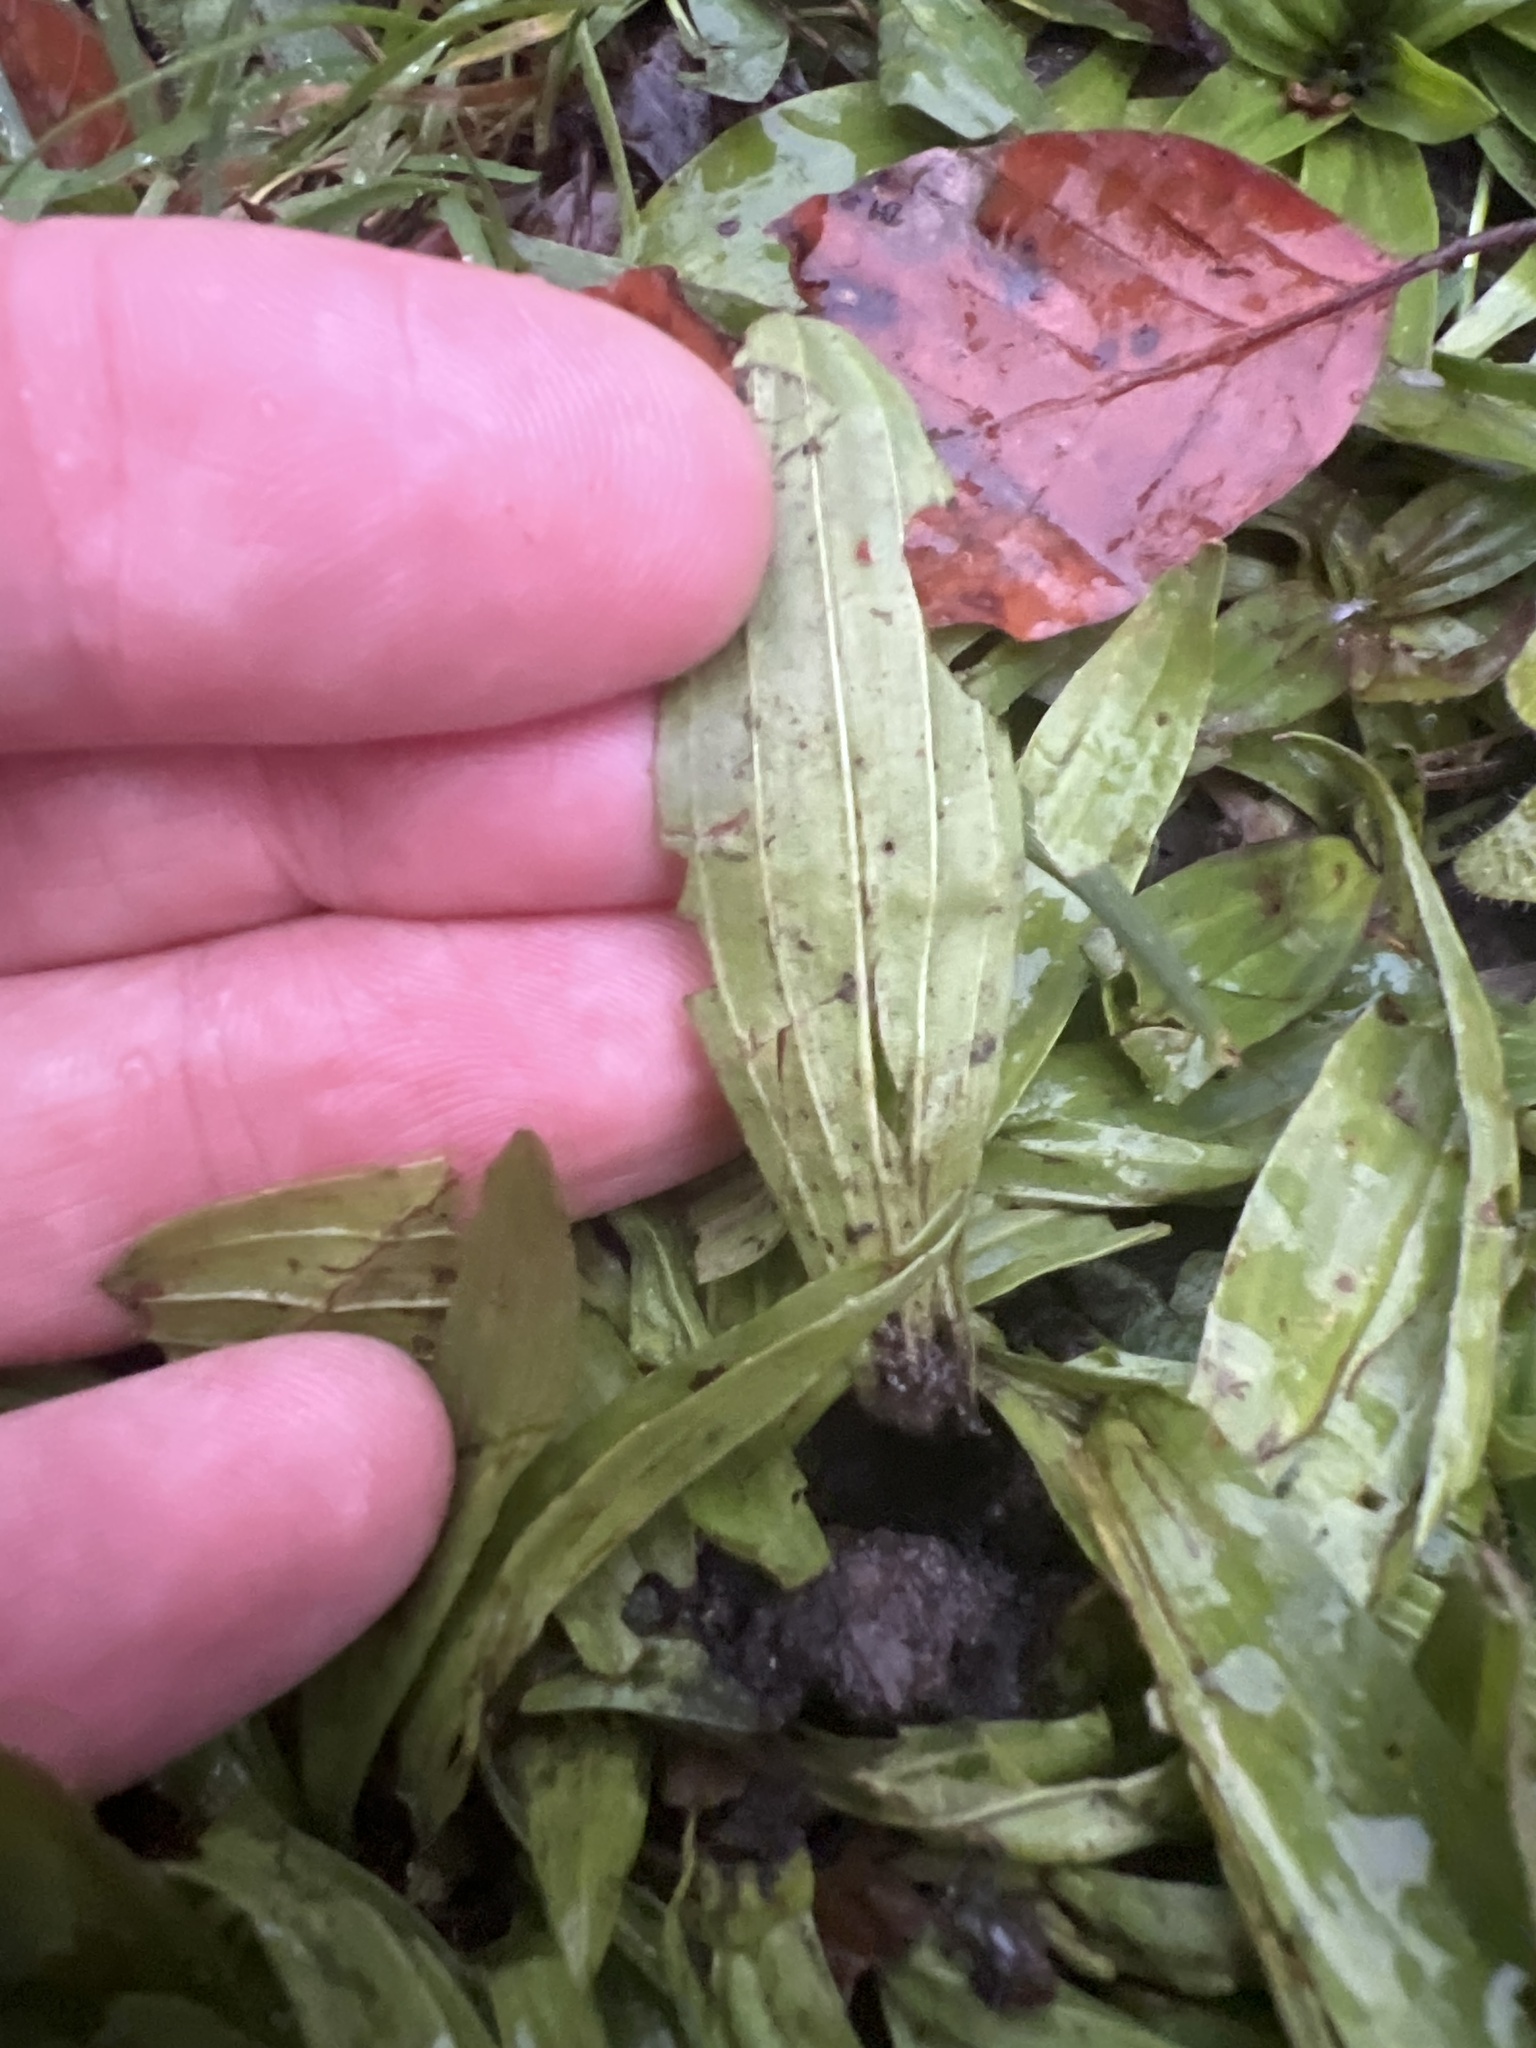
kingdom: Plantae
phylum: Tracheophyta
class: Magnoliopsida
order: Lamiales
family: Plantaginaceae
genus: Plantago
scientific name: Plantago lanceolata
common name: Ribwort plantain
